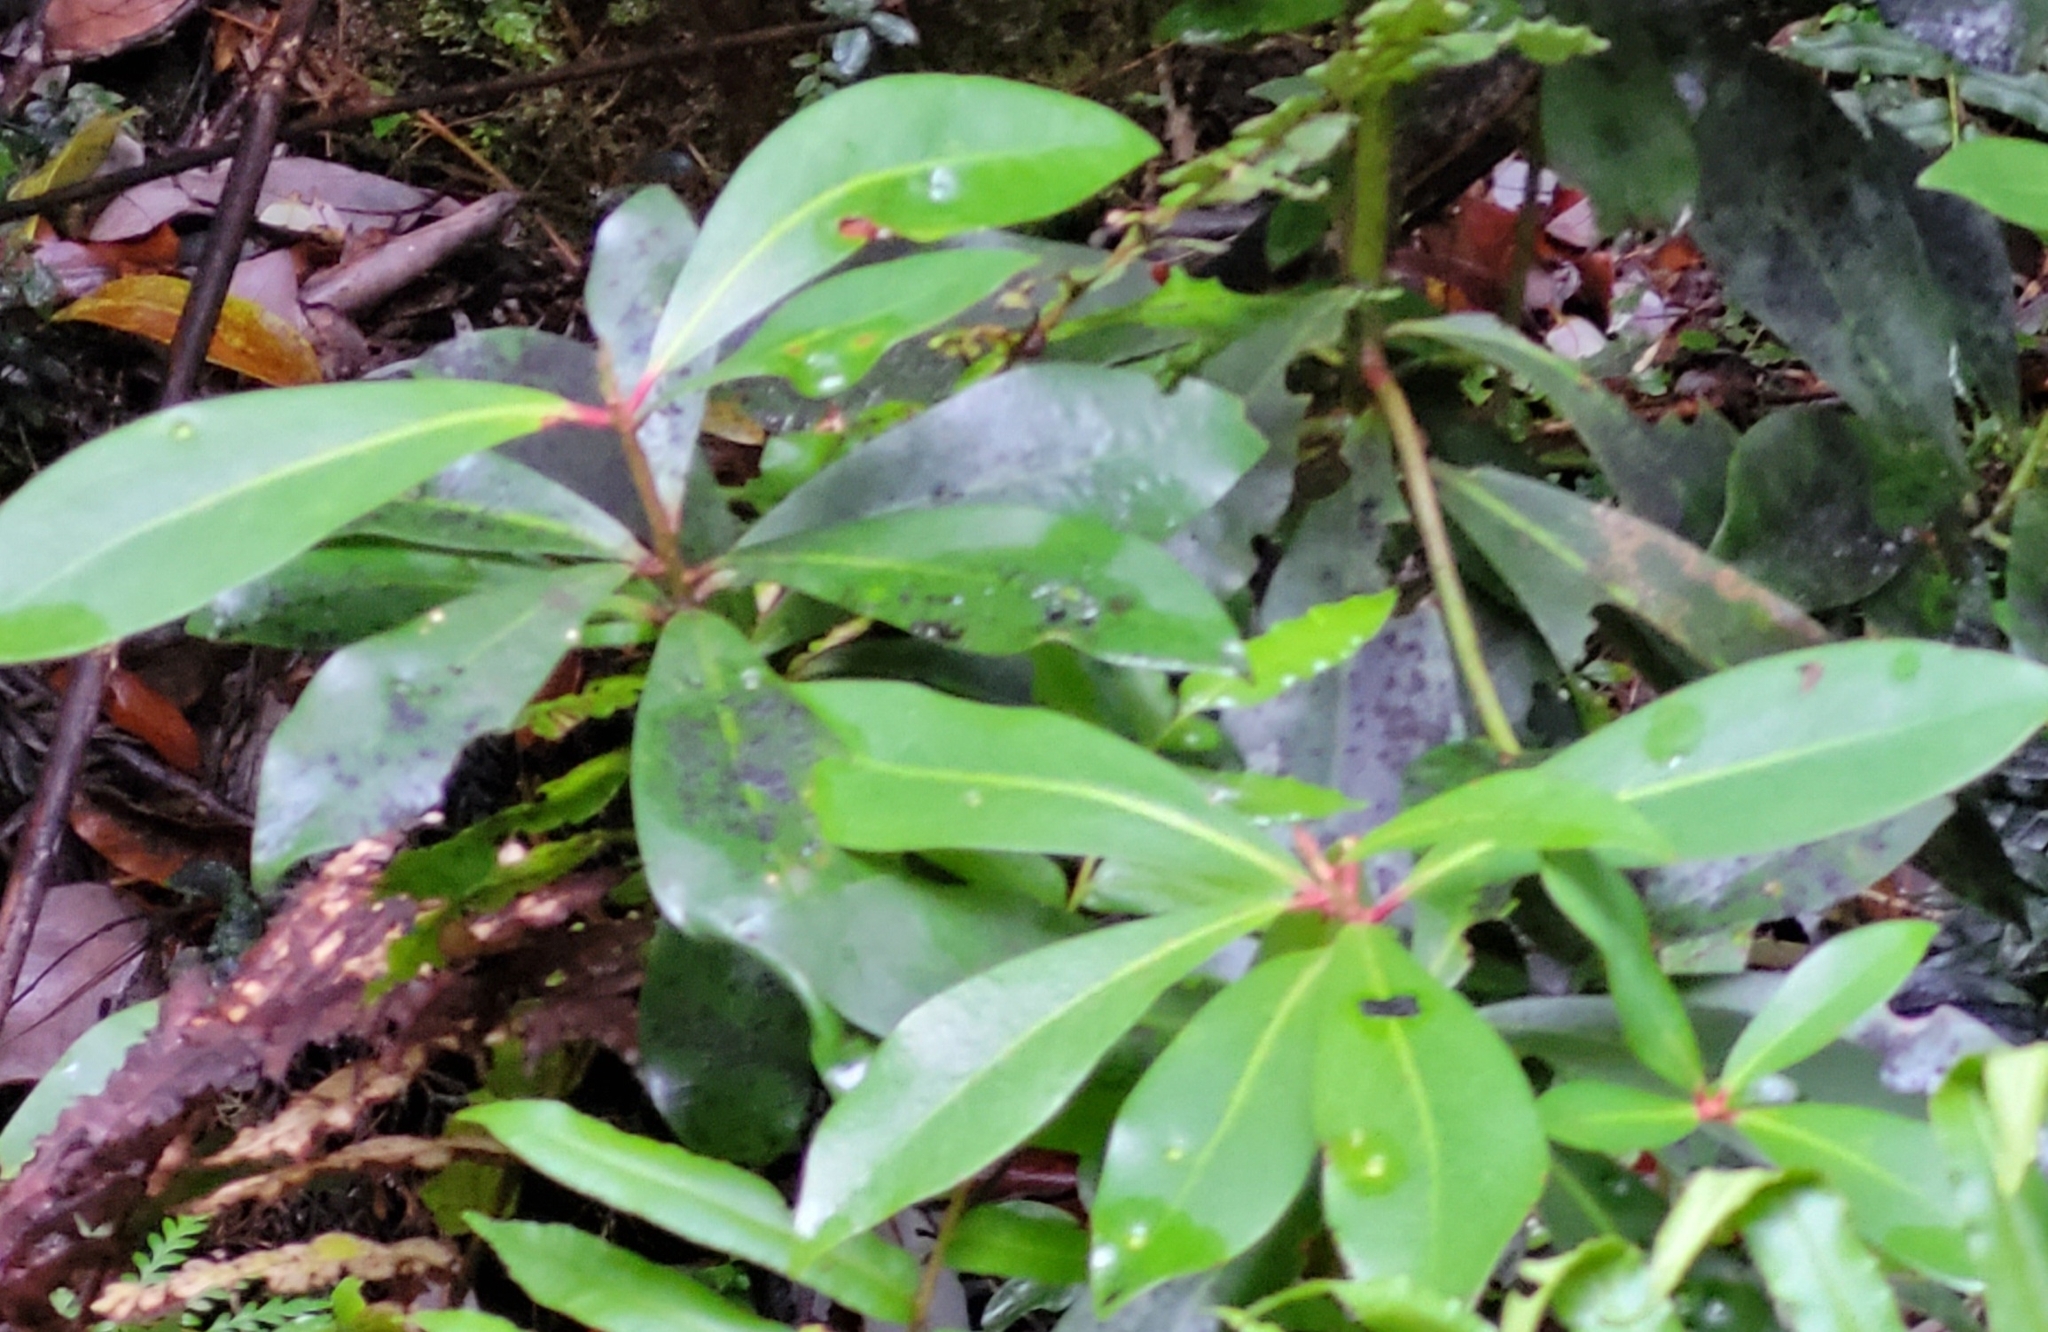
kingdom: Plantae
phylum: Tracheophyta
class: Magnoliopsida
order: Canellales
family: Winteraceae
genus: Drimys
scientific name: Drimys winteri
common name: Winter's-bark
